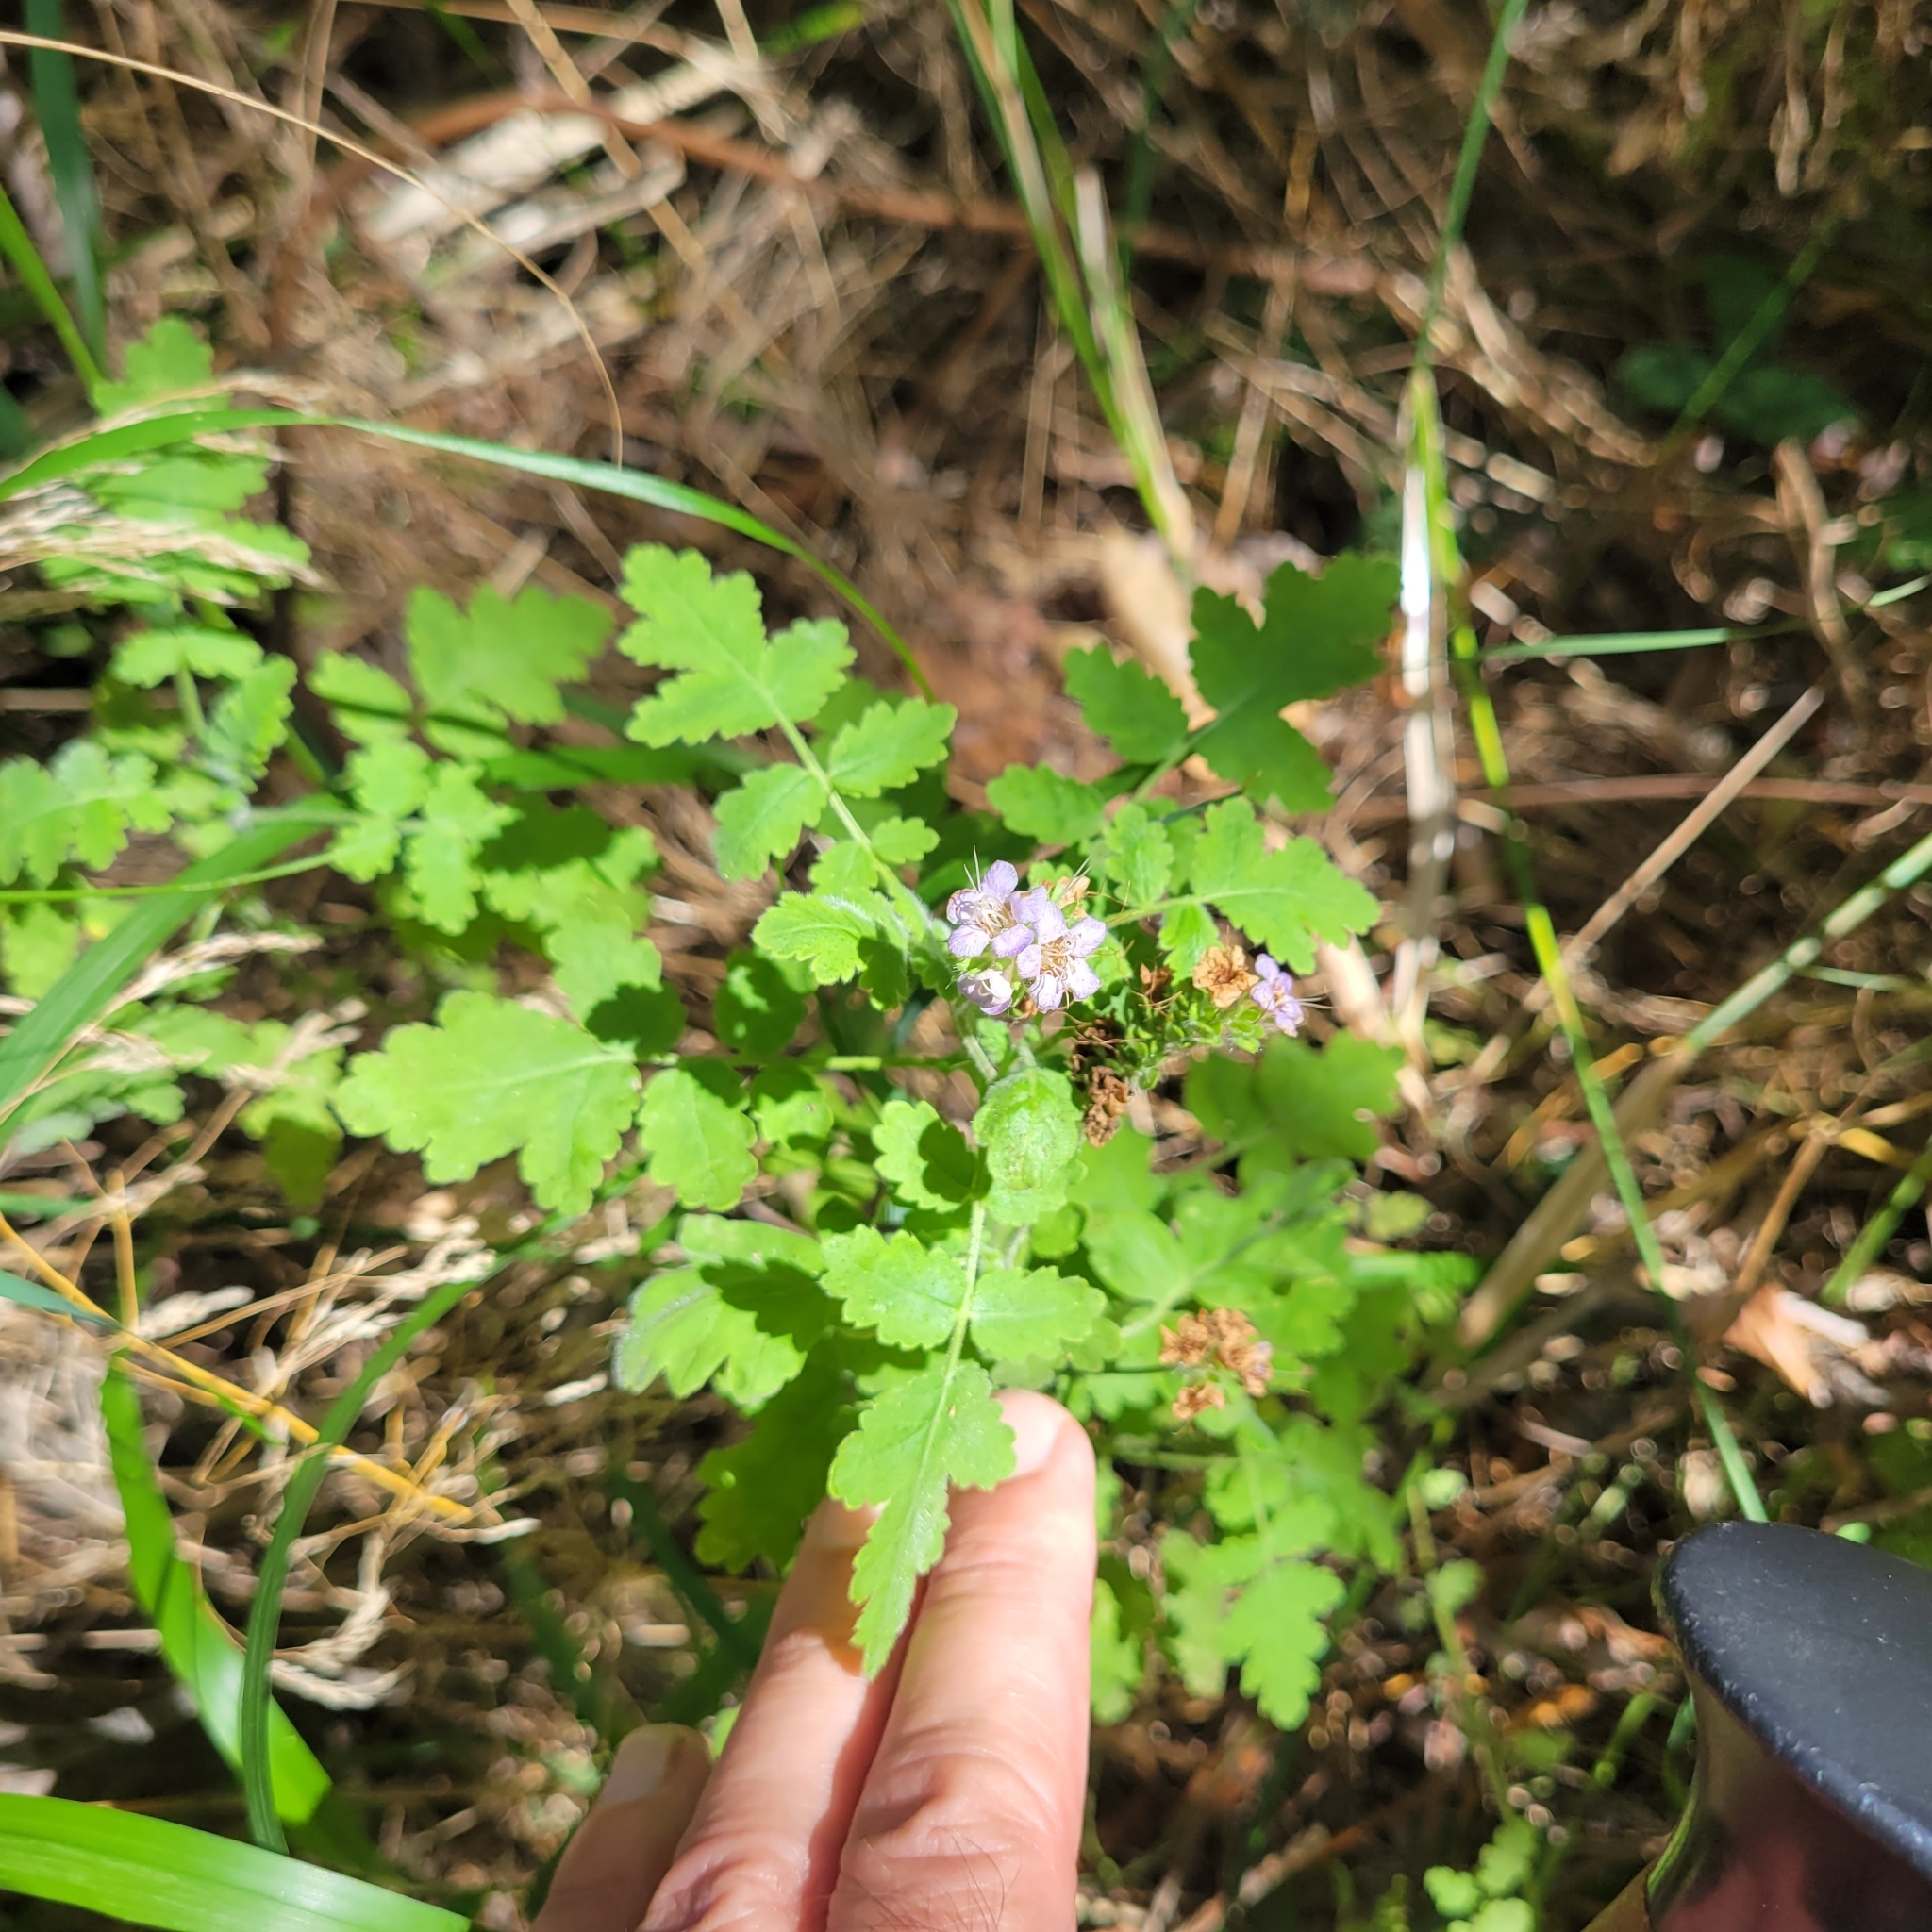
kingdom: Plantae
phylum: Tracheophyta
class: Magnoliopsida
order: Boraginales
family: Hydrophyllaceae
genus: Phacelia
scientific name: Phacelia ramosissima
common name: Branching phacelia
